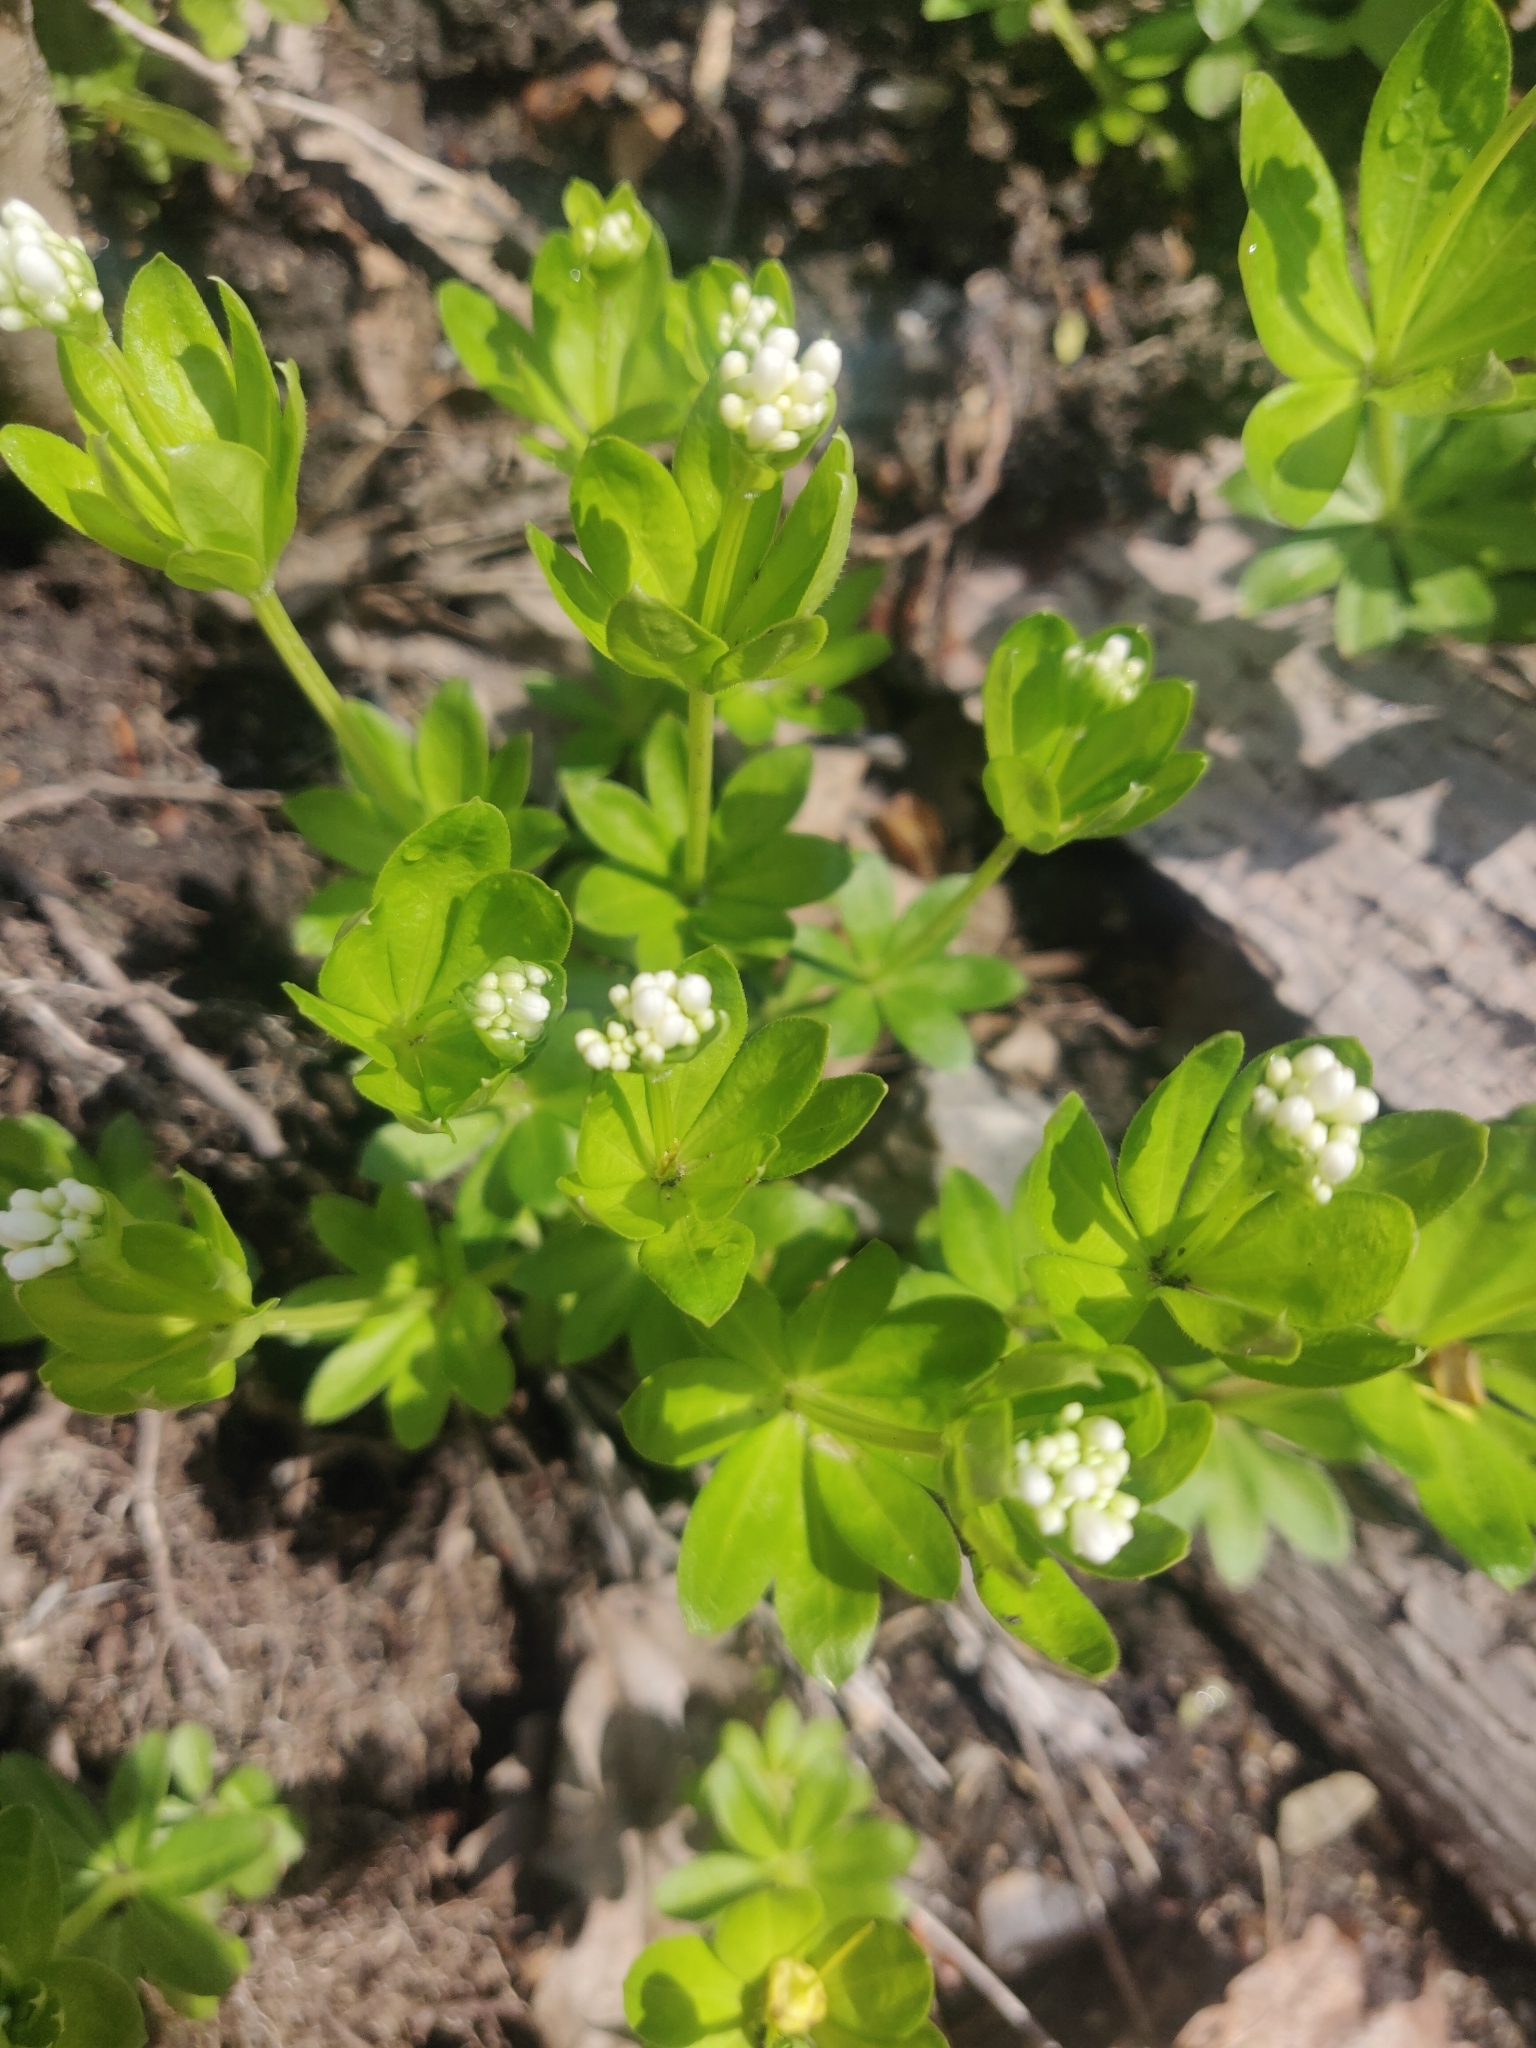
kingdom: Plantae
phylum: Tracheophyta
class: Magnoliopsida
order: Gentianales
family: Rubiaceae
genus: Galium
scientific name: Galium odoratum
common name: Sweet woodruff
